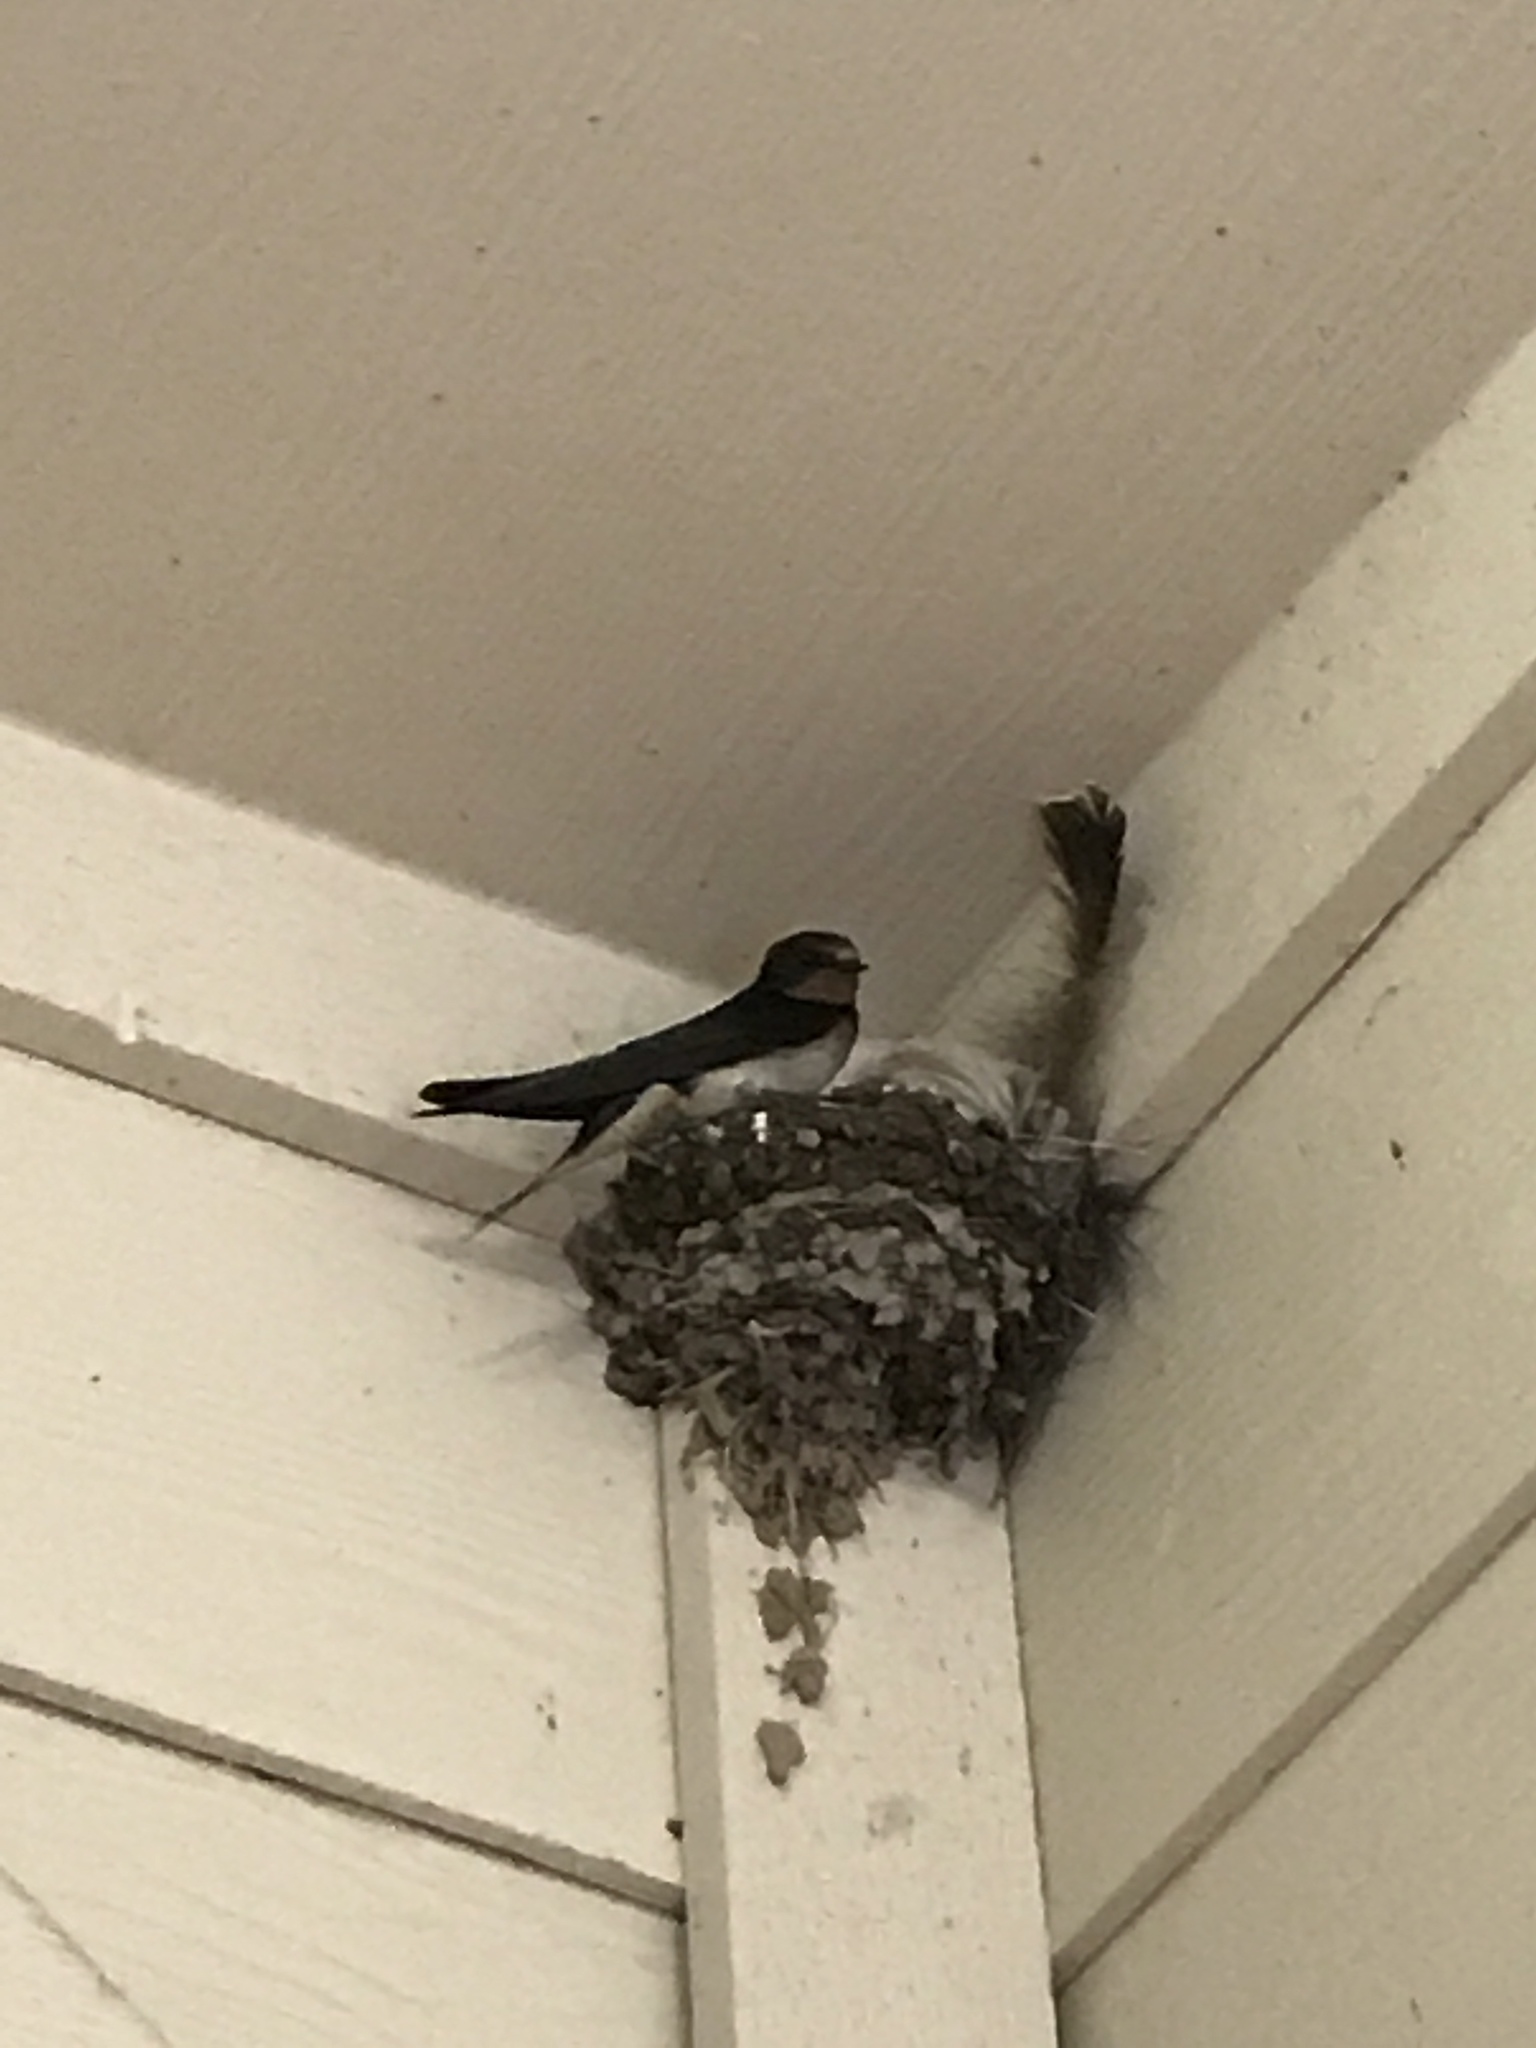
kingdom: Animalia
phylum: Chordata
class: Aves
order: Passeriformes
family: Hirundinidae
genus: Hirundo
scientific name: Hirundo rustica
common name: Barn swallow
